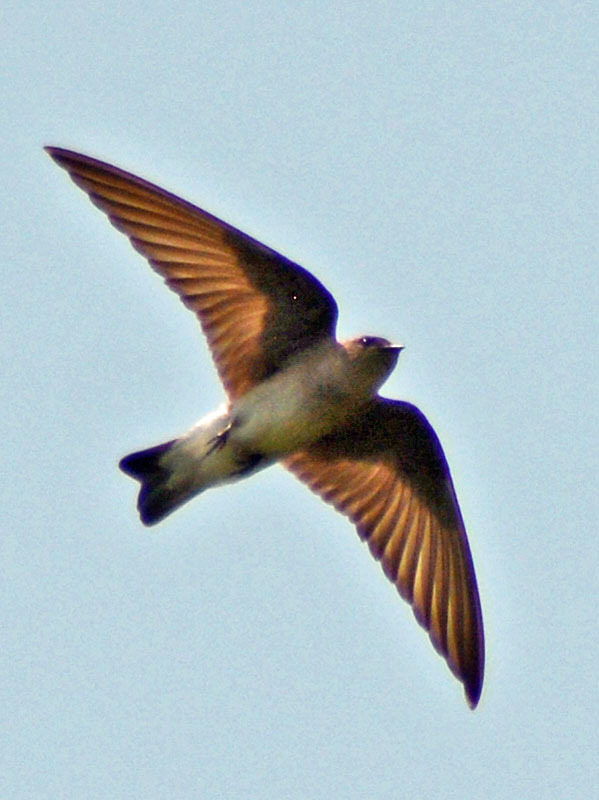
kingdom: Animalia
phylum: Chordata
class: Aves
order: Passeriformes
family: Hirundinidae
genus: Stelgidopteryx
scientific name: Stelgidopteryx serripennis
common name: Northern rough-winged swallow
